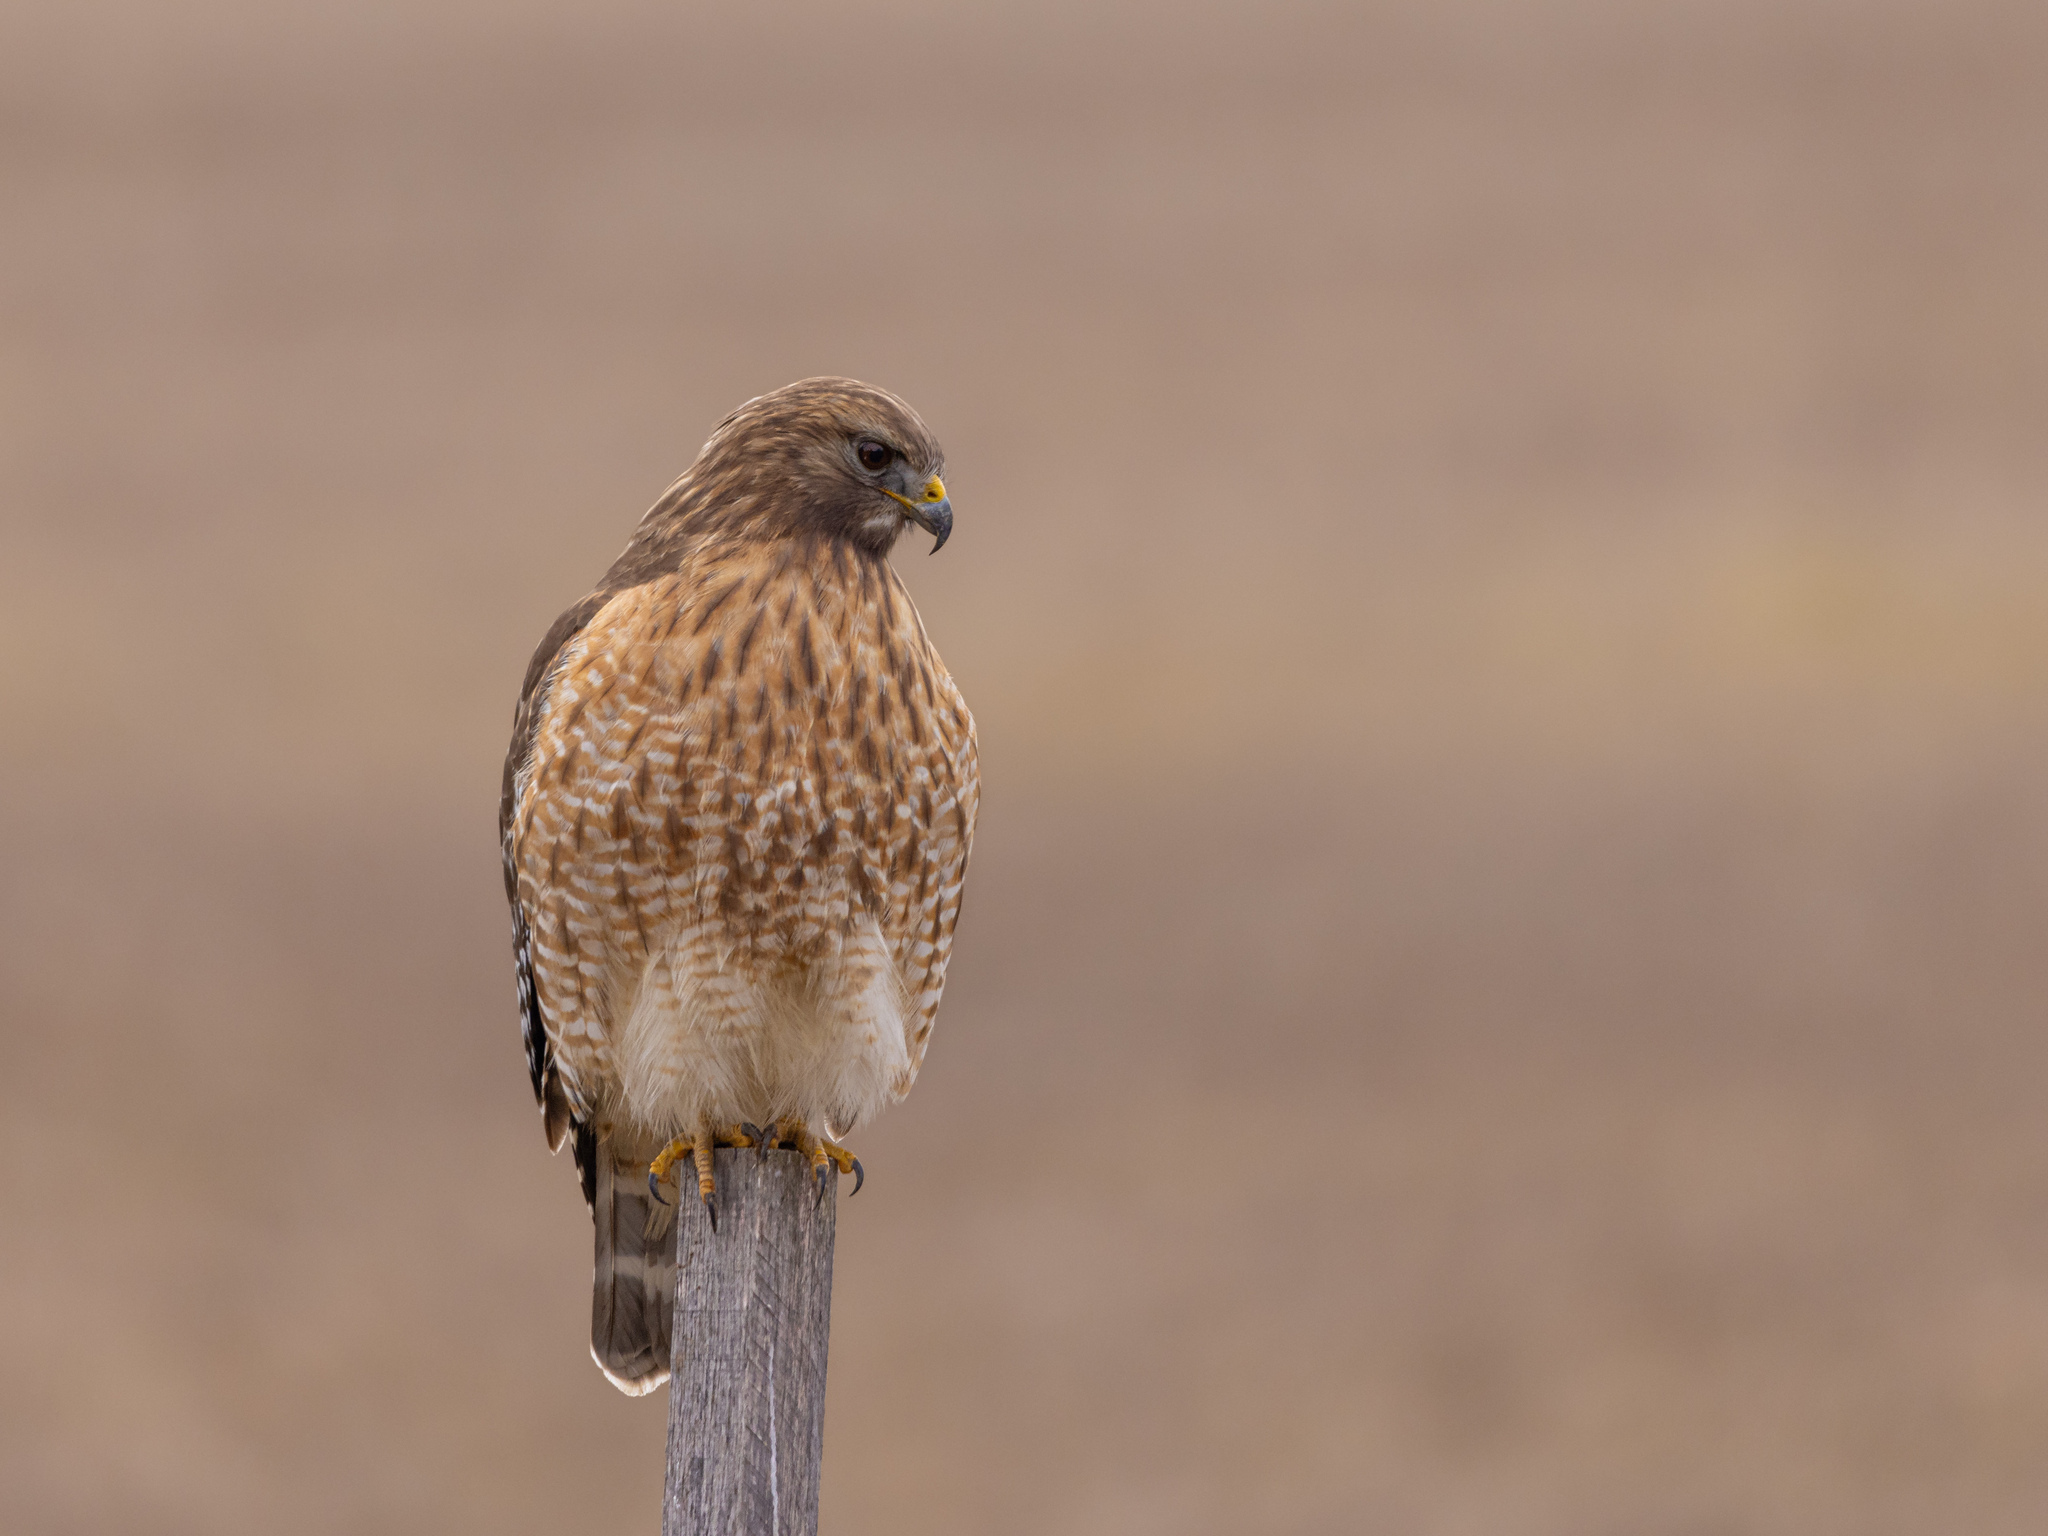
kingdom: Animalia
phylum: Chordata
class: Aves
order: Accipitriformes
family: Accipitridae
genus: Buteo
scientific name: Buteo lineatus
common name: Red-shouldered hawk
